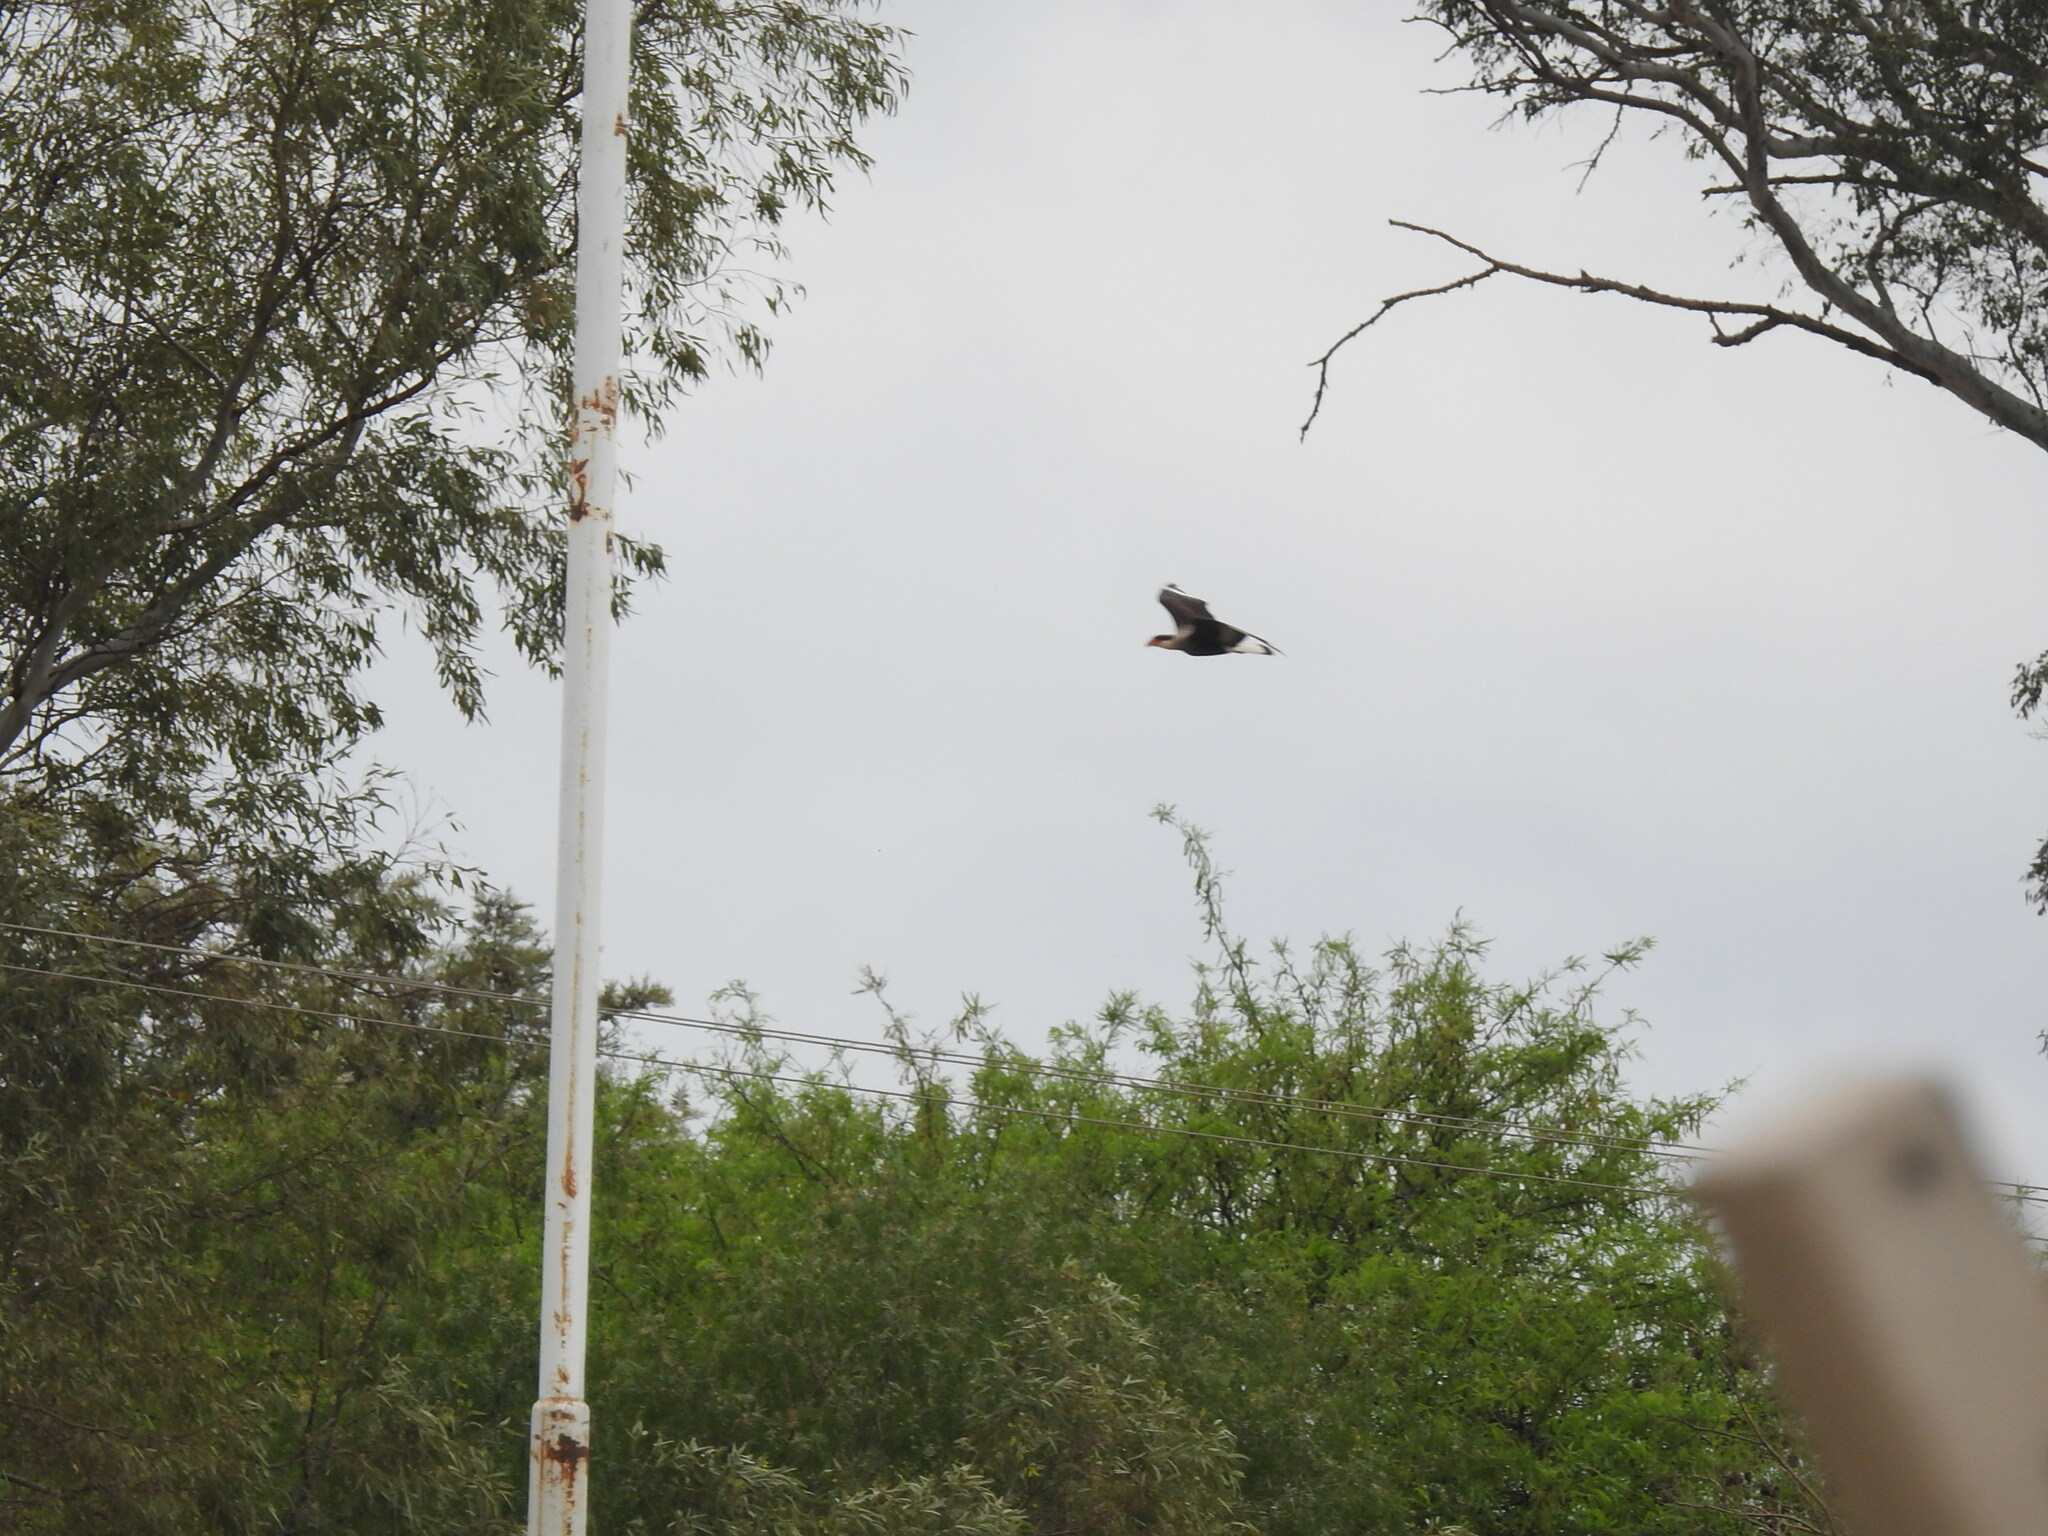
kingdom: Animalia
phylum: Chordata
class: Aves
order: Falconiformes
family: Falconidae
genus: Caracara
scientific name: Caracara plancus
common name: Southern caracara
